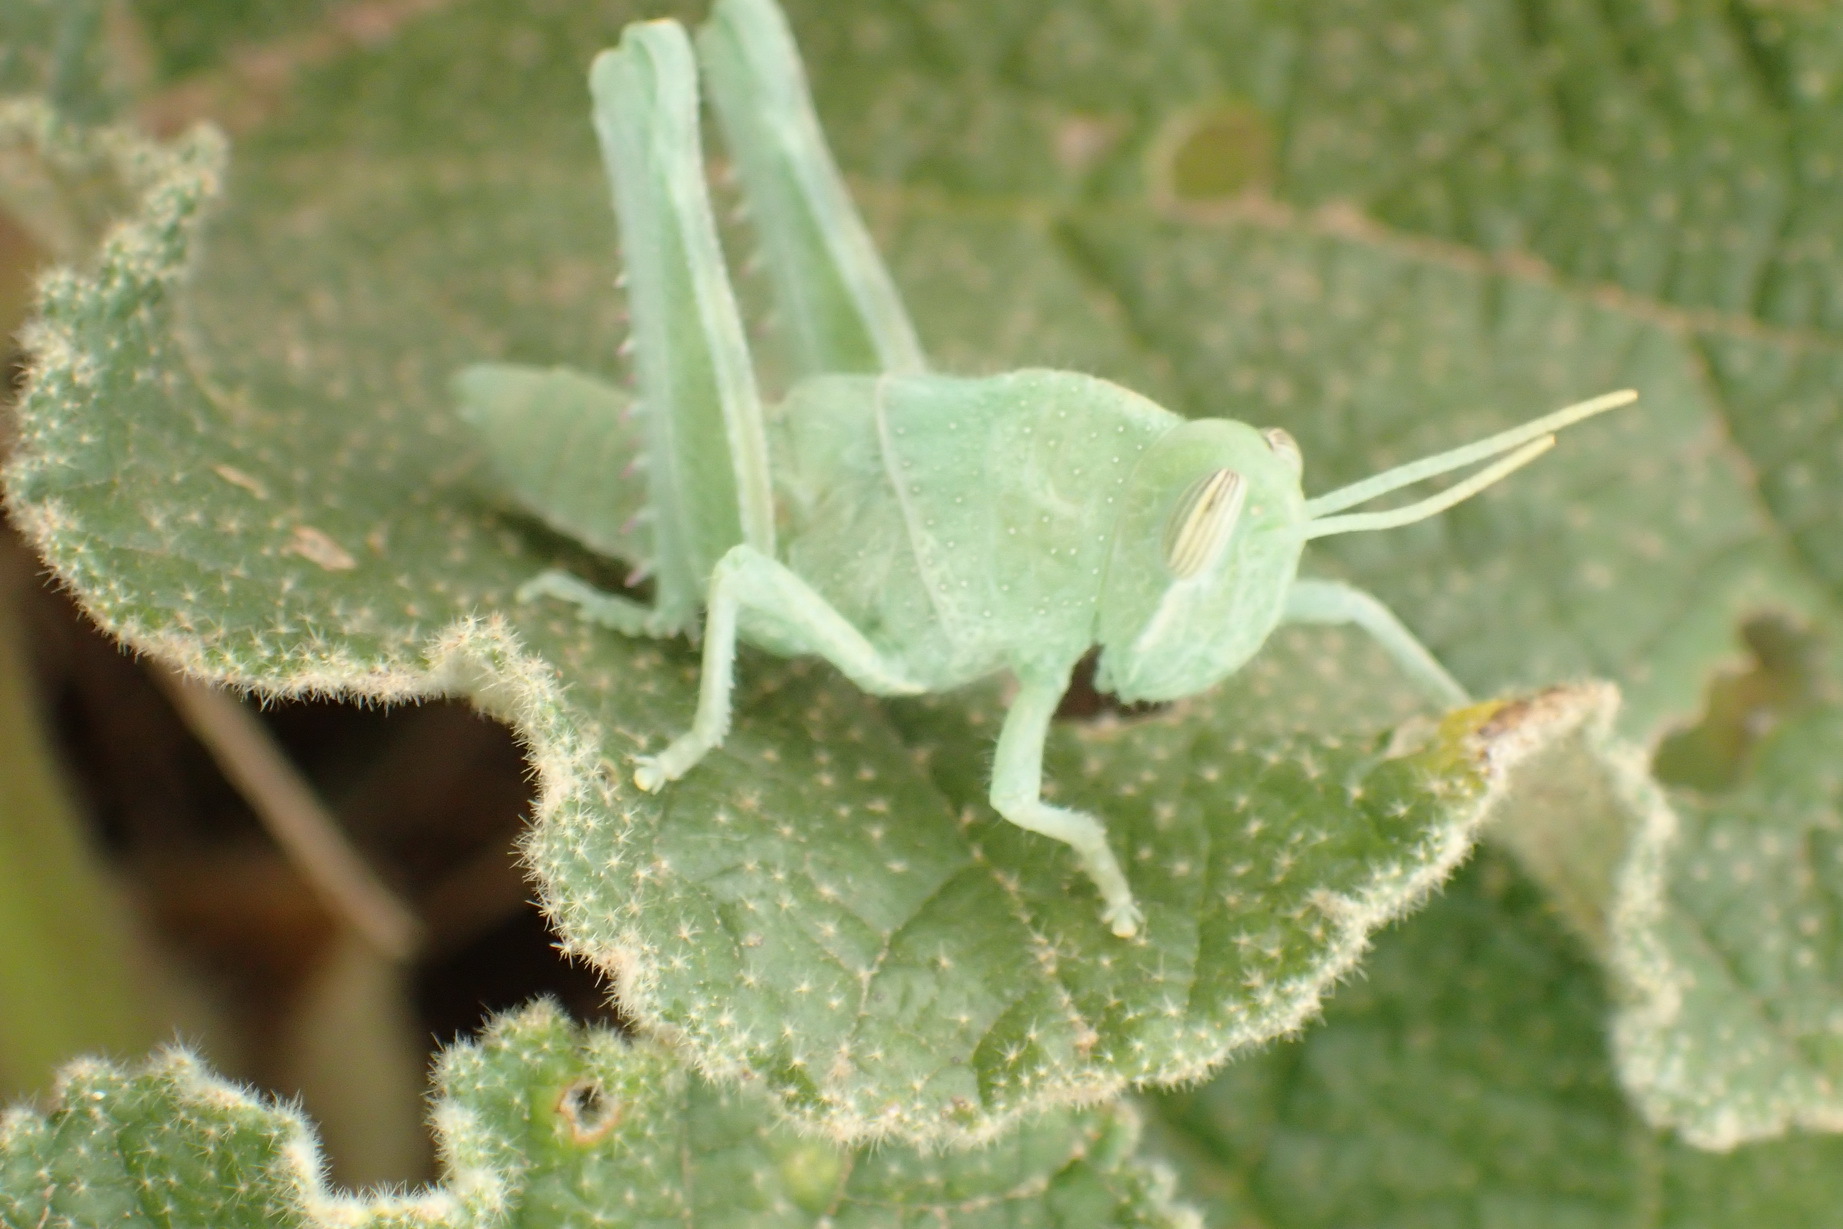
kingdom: Animalia
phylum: Arthropoda
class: Insecta
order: Orthoptera
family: Acrididae
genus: Acanthacris
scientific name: Acanthacris ruficornis
